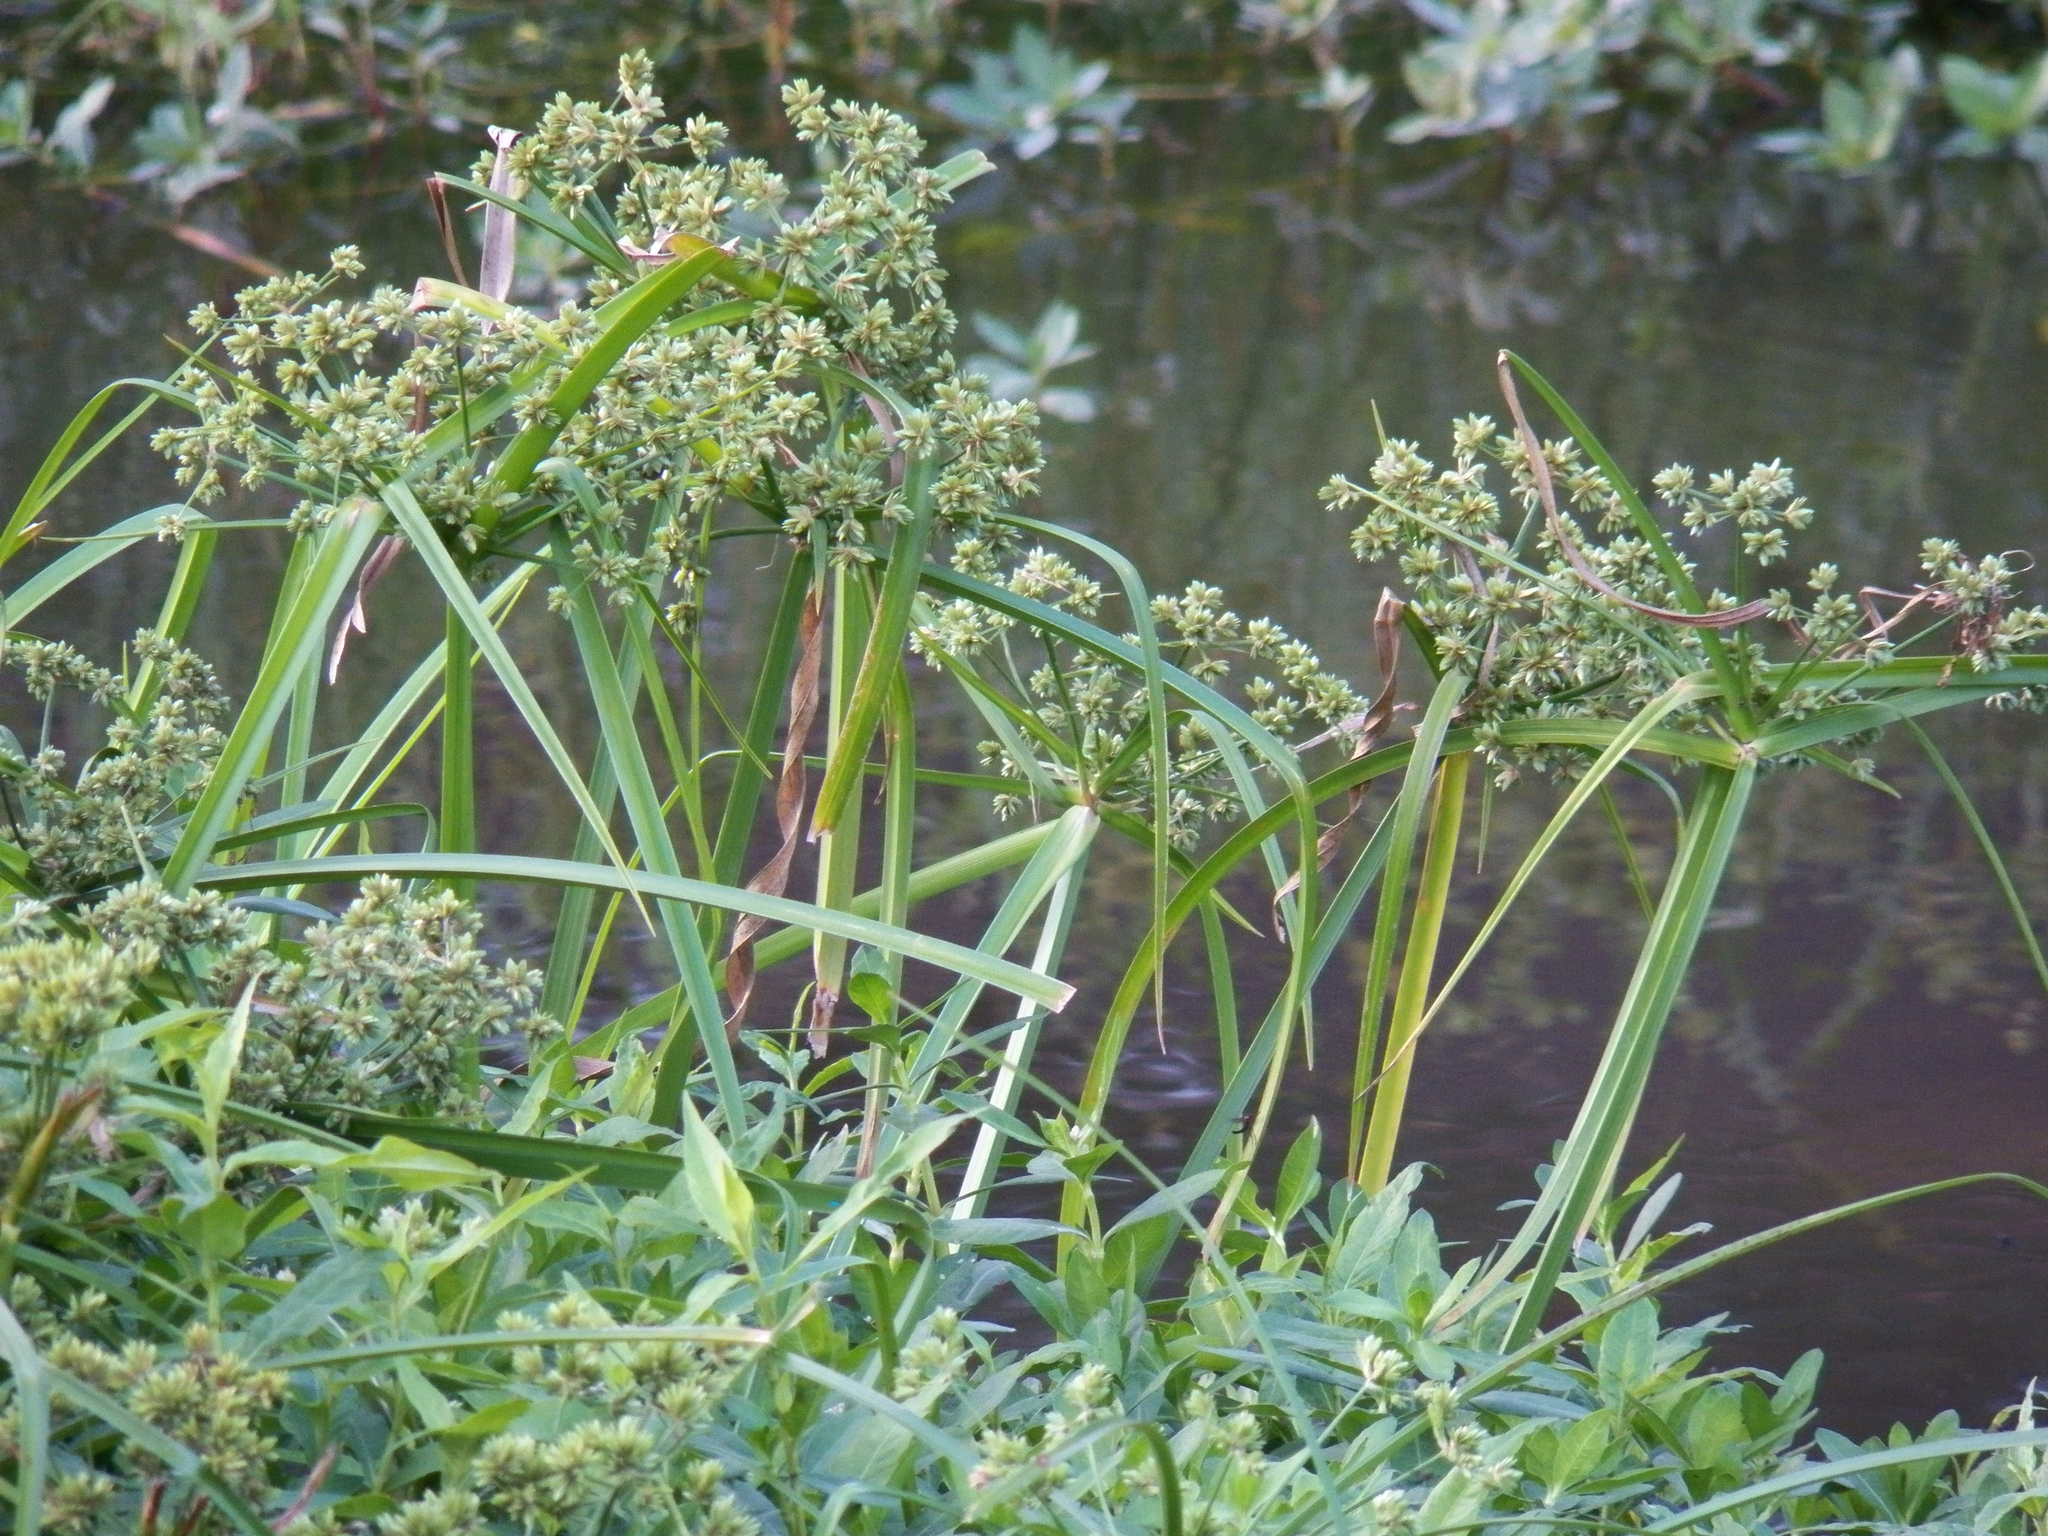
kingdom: Plantae
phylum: Tracheophyta
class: Liliopsida
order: Poales
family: Cyperaceae
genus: Cyperus
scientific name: Cyperus virens
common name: Green flatsedge
